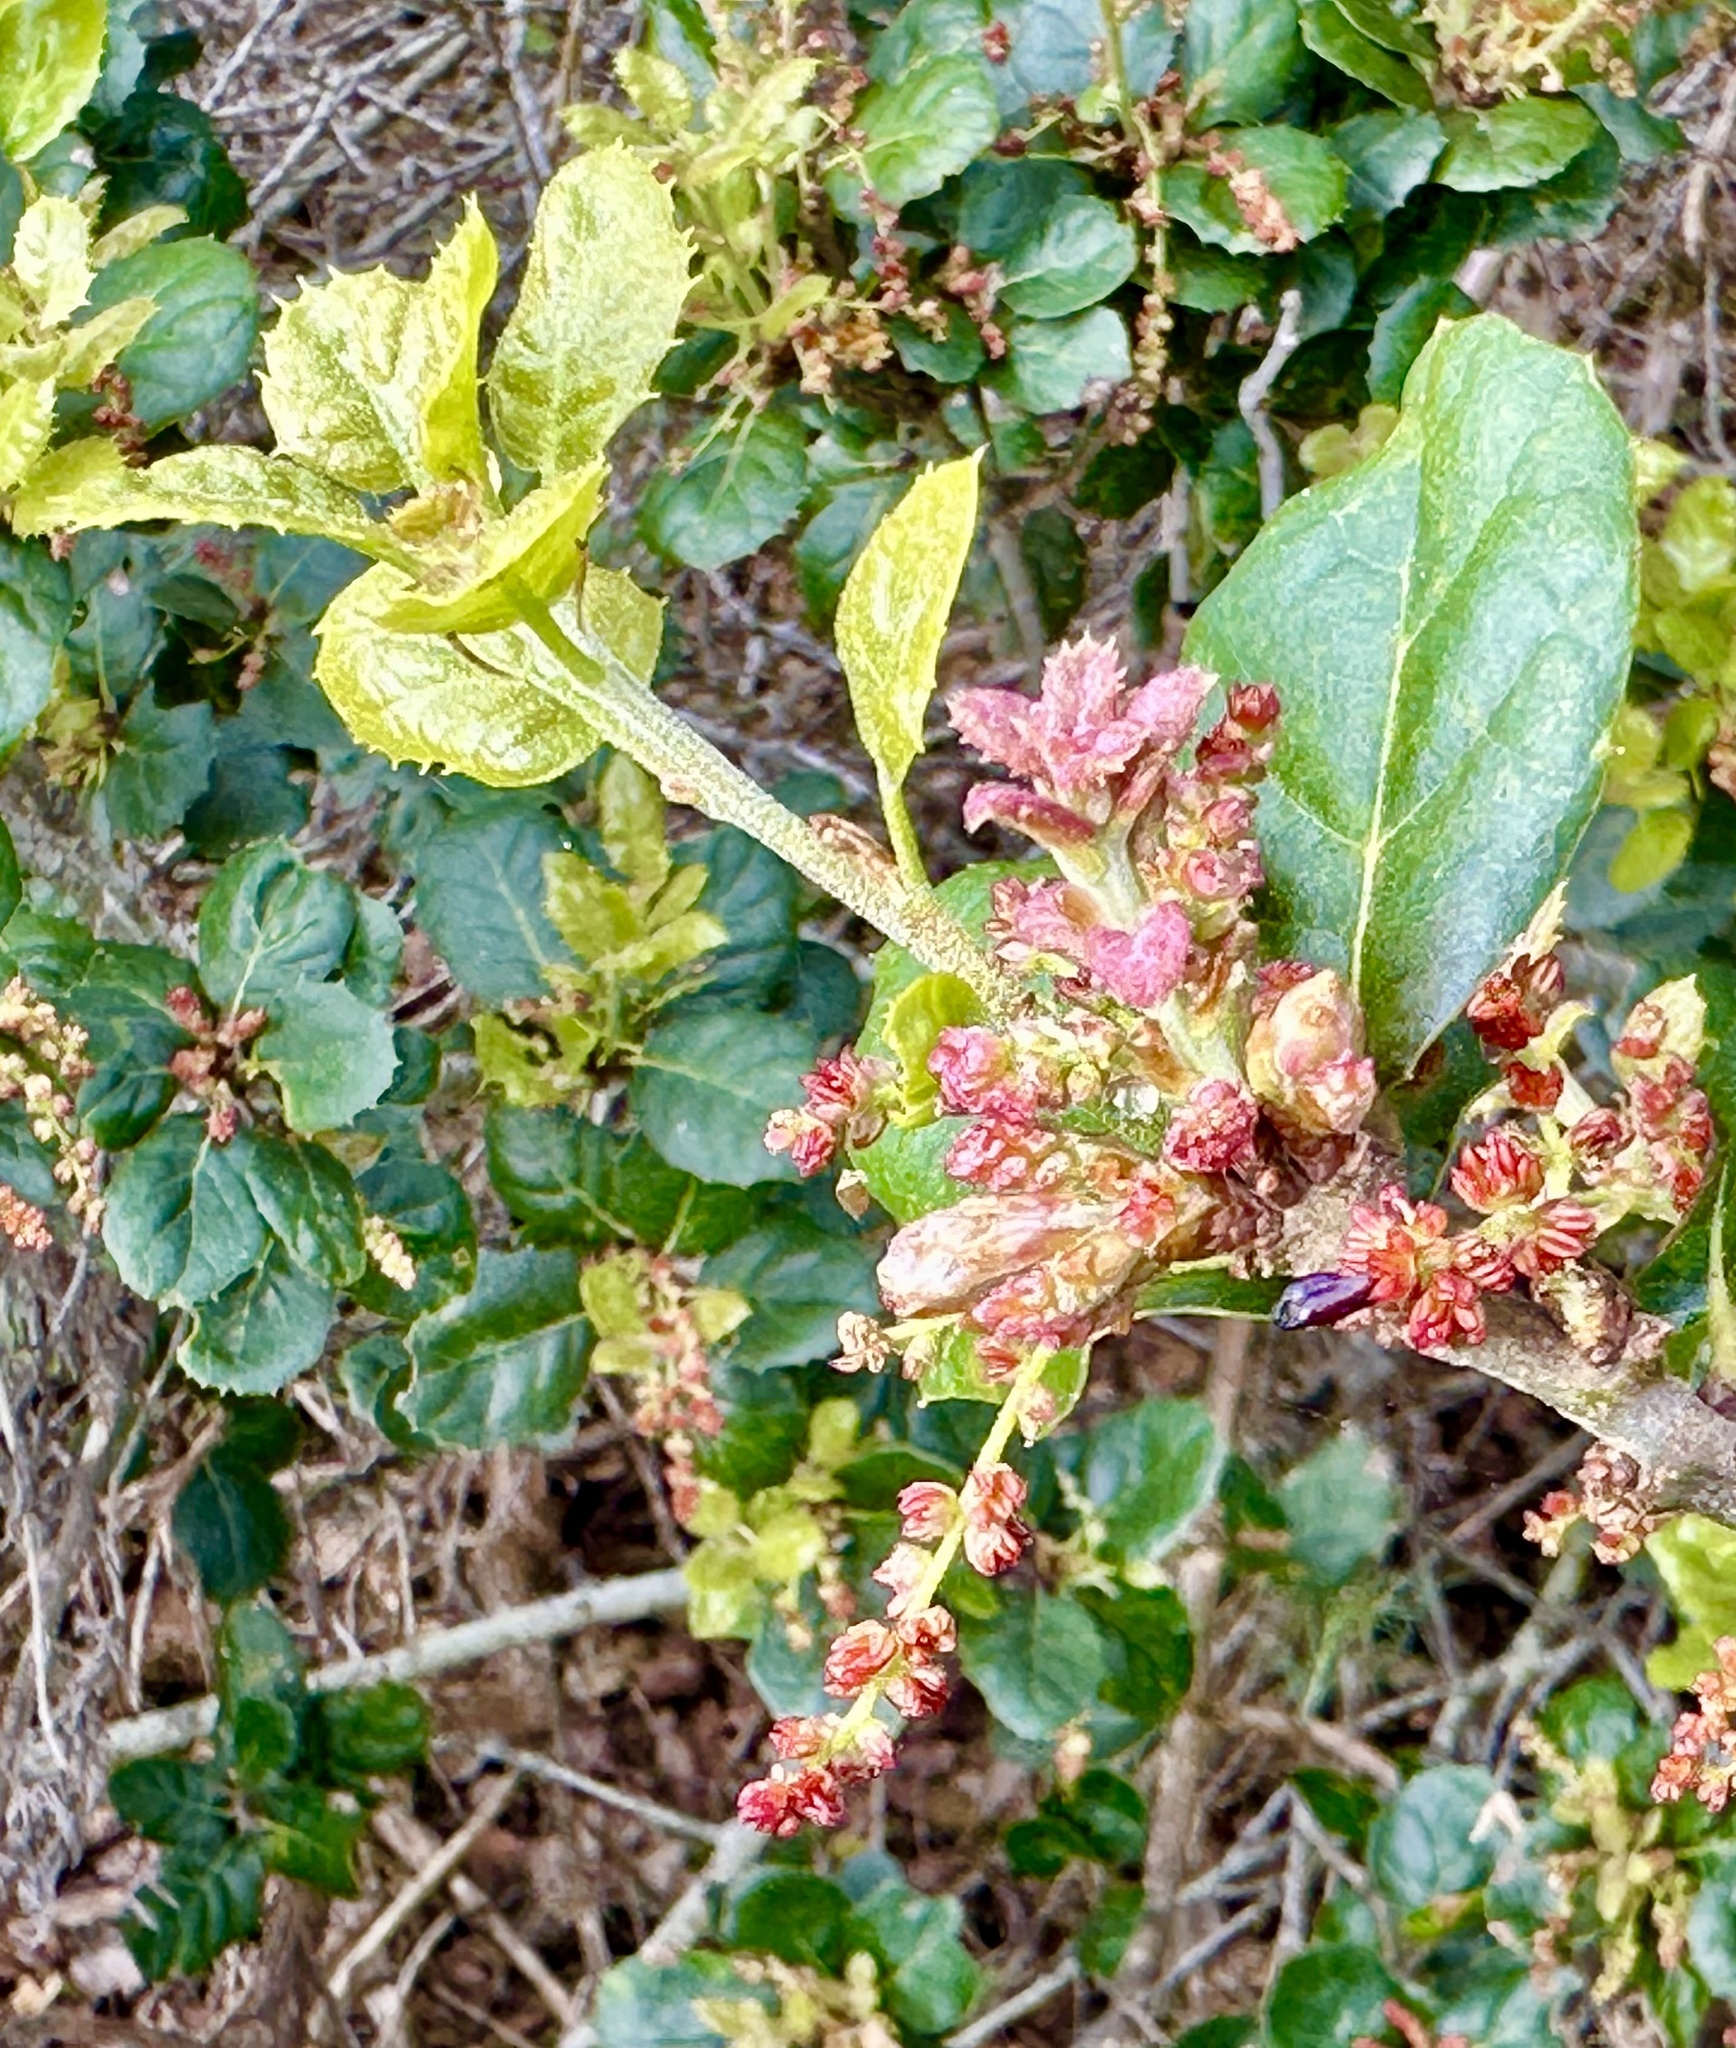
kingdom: Animalia
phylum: Arthropoda
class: Insecta
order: Hymenoptera
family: Cynipidae
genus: Dryocosmus
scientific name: Dryocosmus
